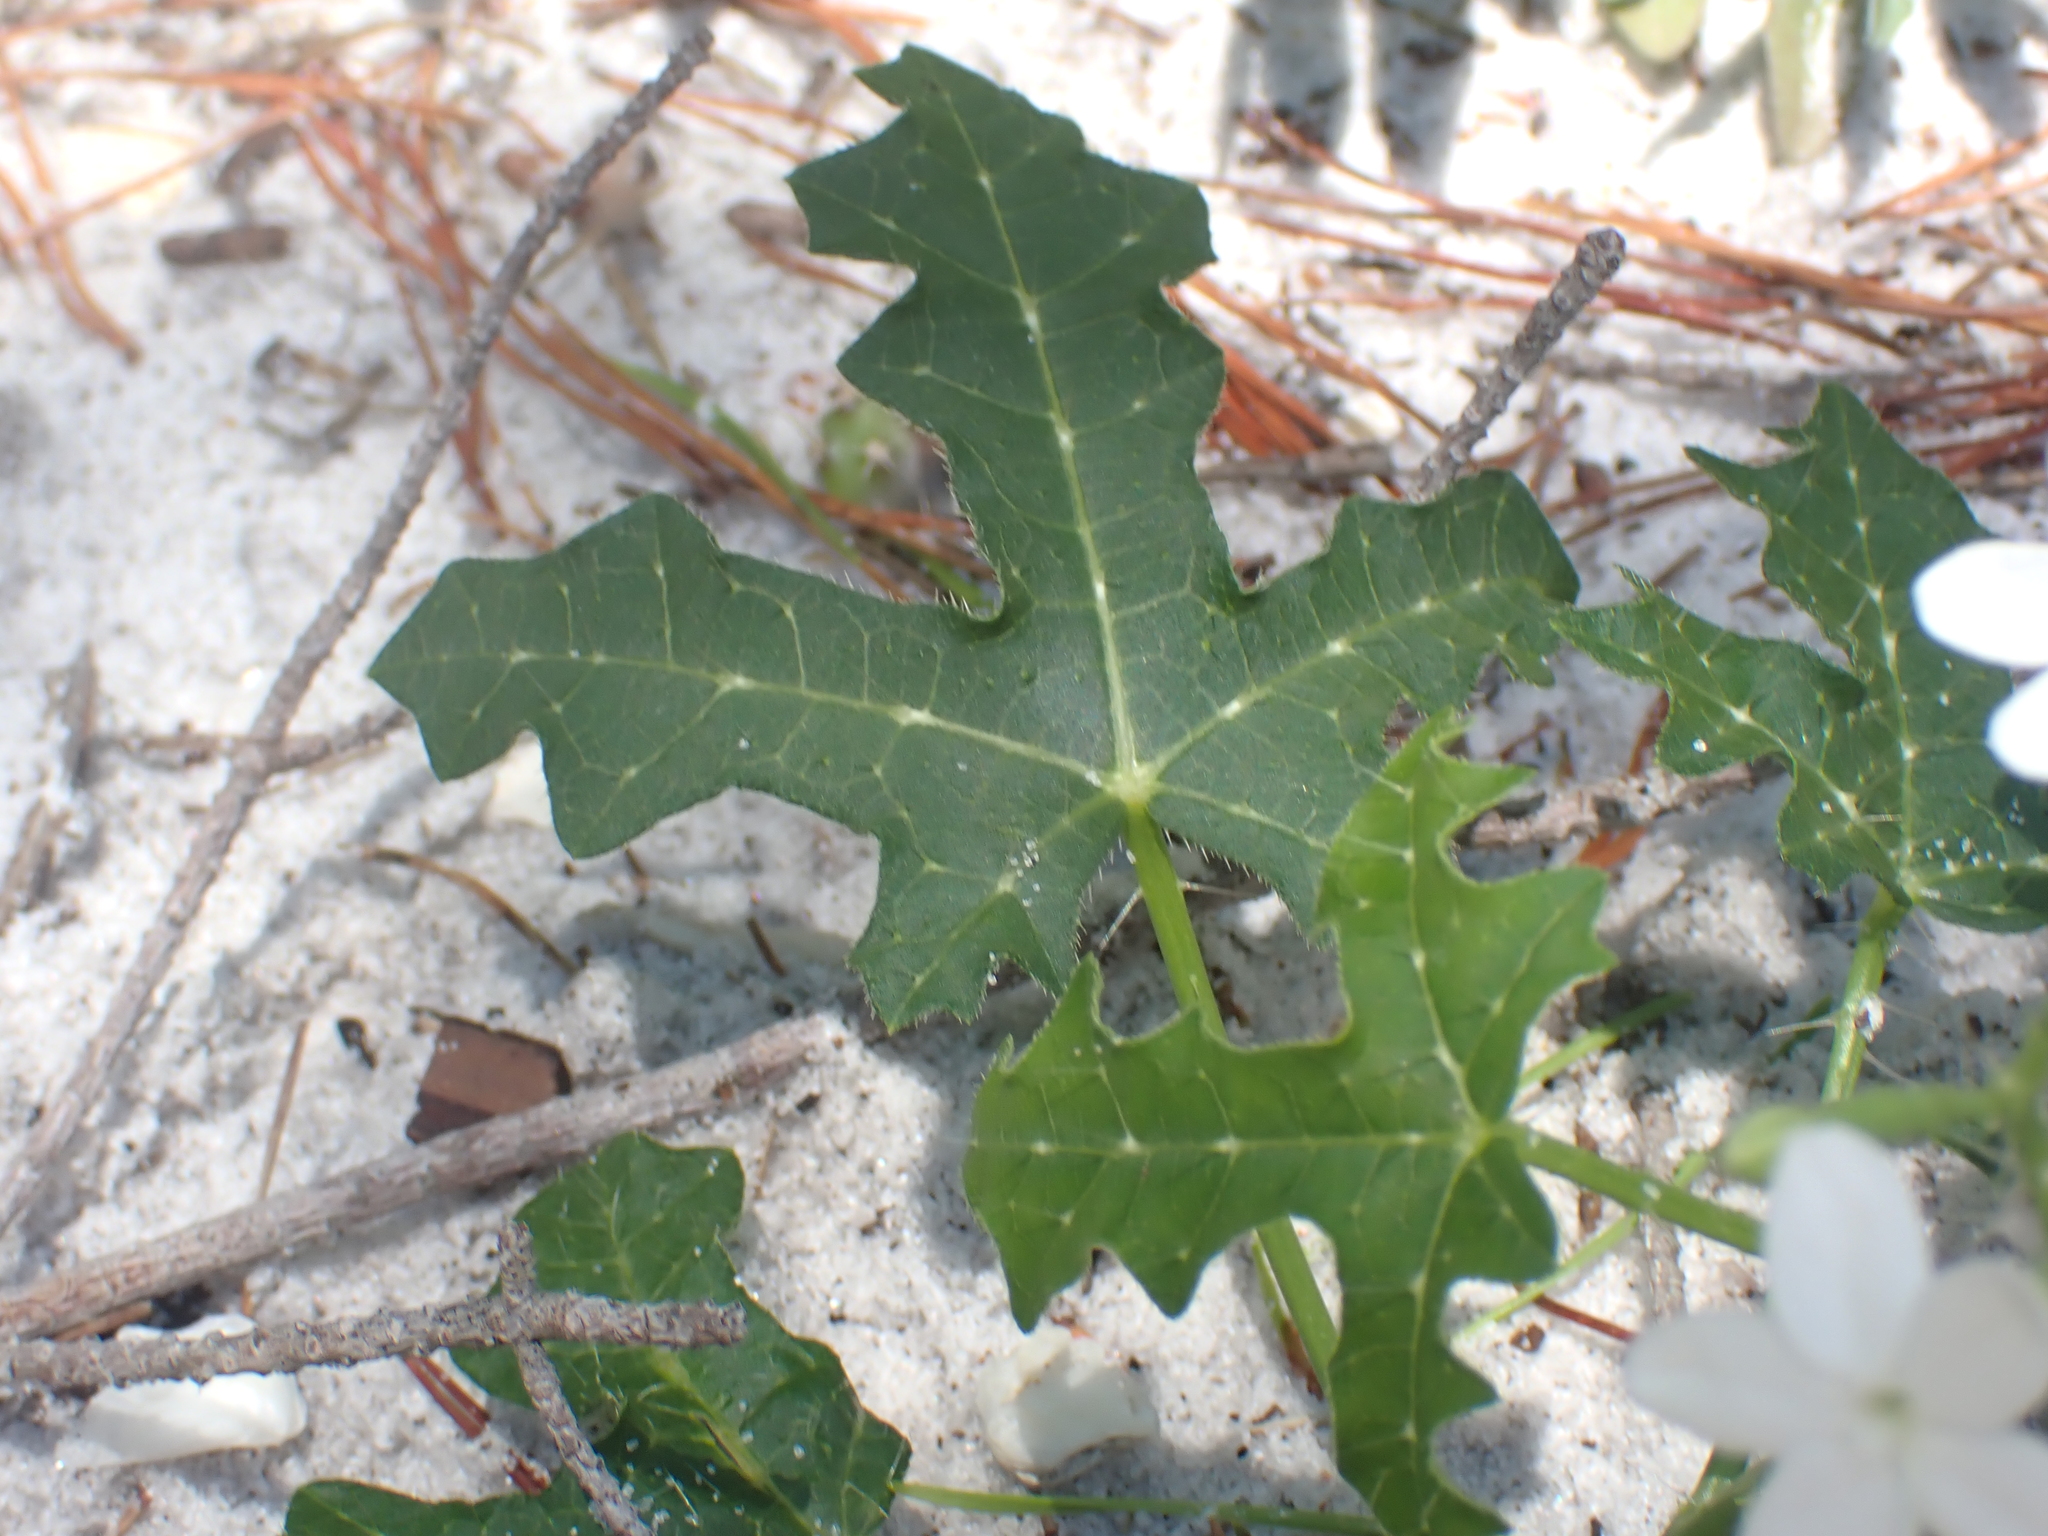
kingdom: Plantae
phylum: Tracheophyta
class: Magnoliopsida
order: Malpighiales
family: Euphorbiaceae
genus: Cnidoscolus
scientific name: Cnidoscolus stimulosus
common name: Bull-nettle
